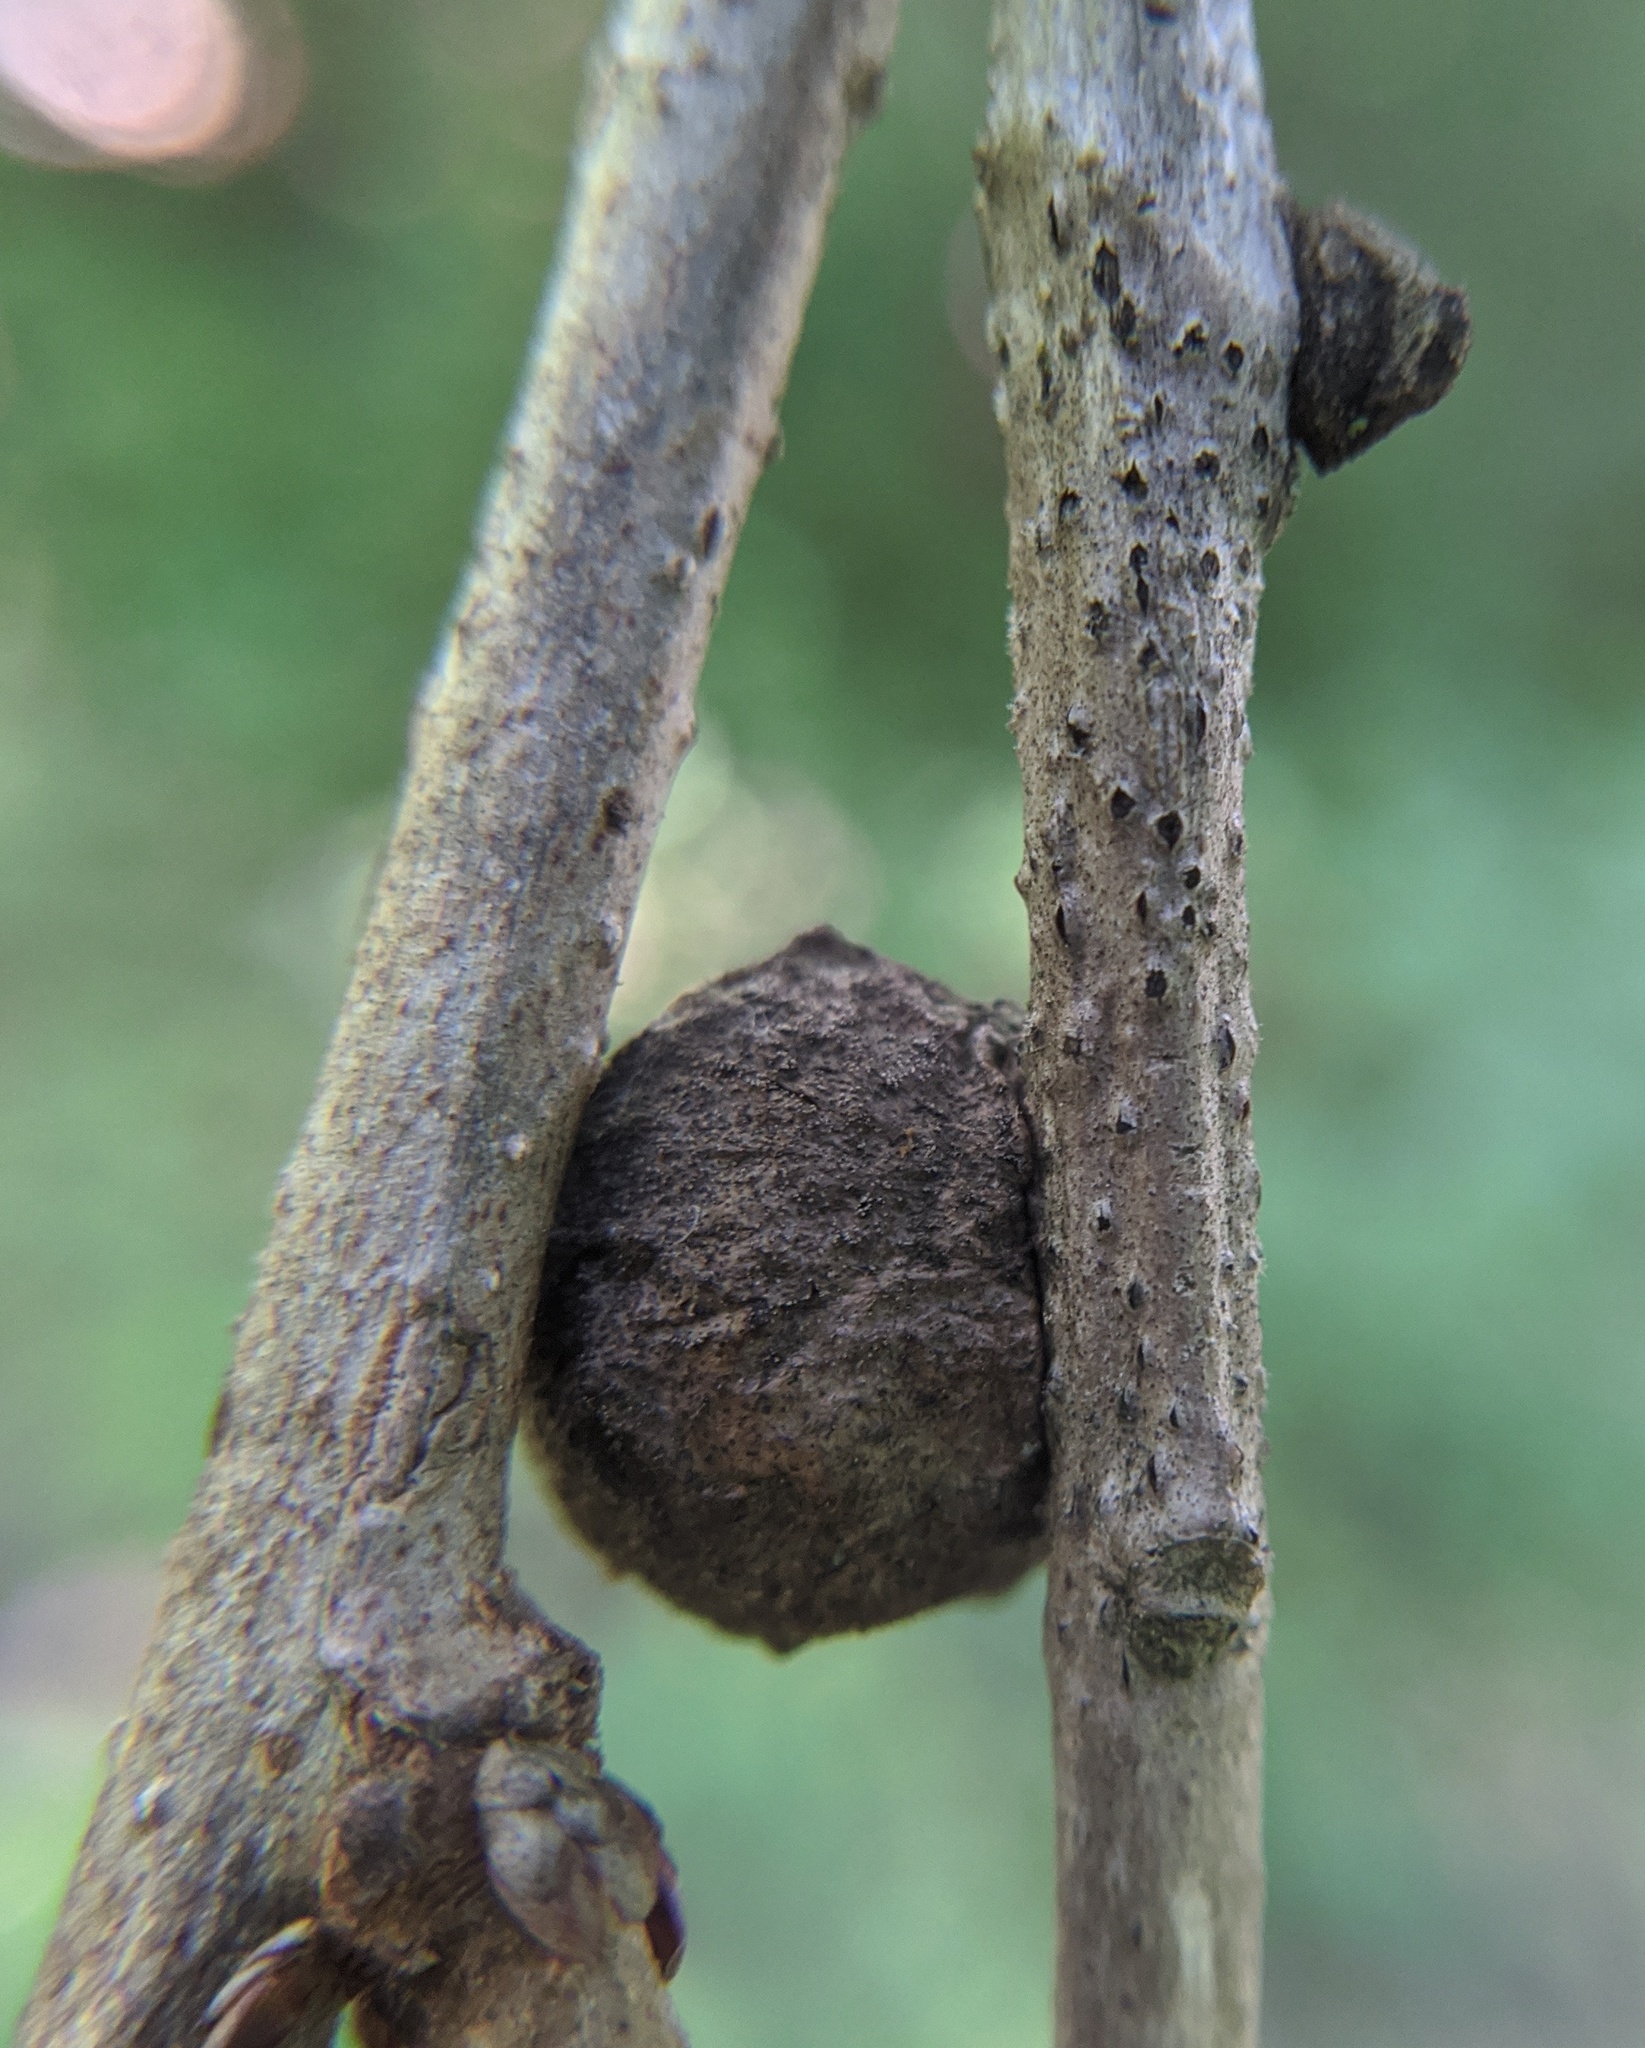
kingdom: Animalia
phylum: Arthropoda
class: Insecta
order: Hymenoptera
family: Cynipidae
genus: Disholcaspis
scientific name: Disholcaspis
